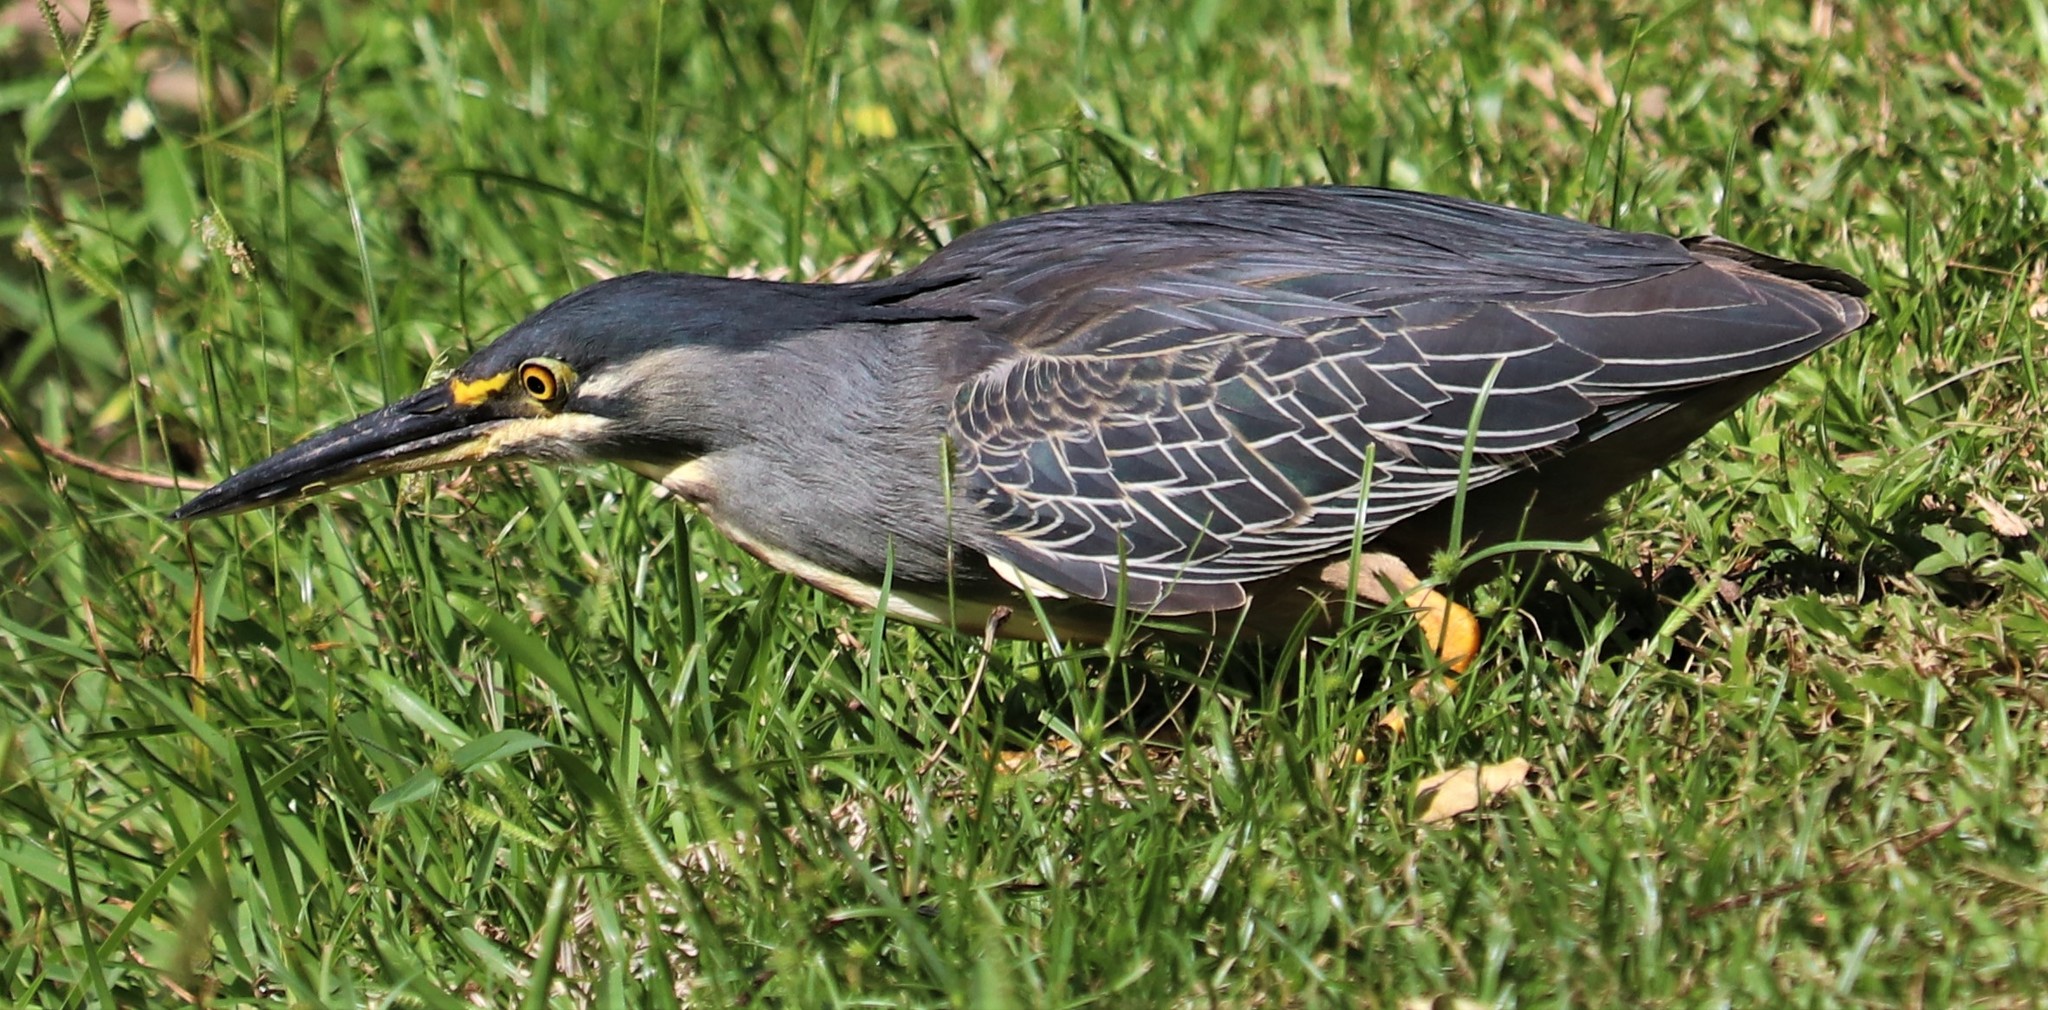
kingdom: Animalia
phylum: Chordata
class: Aves
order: Pelecaniformes
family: Ardeidae
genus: Butorides
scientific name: Butorides striata
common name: Striated heron
